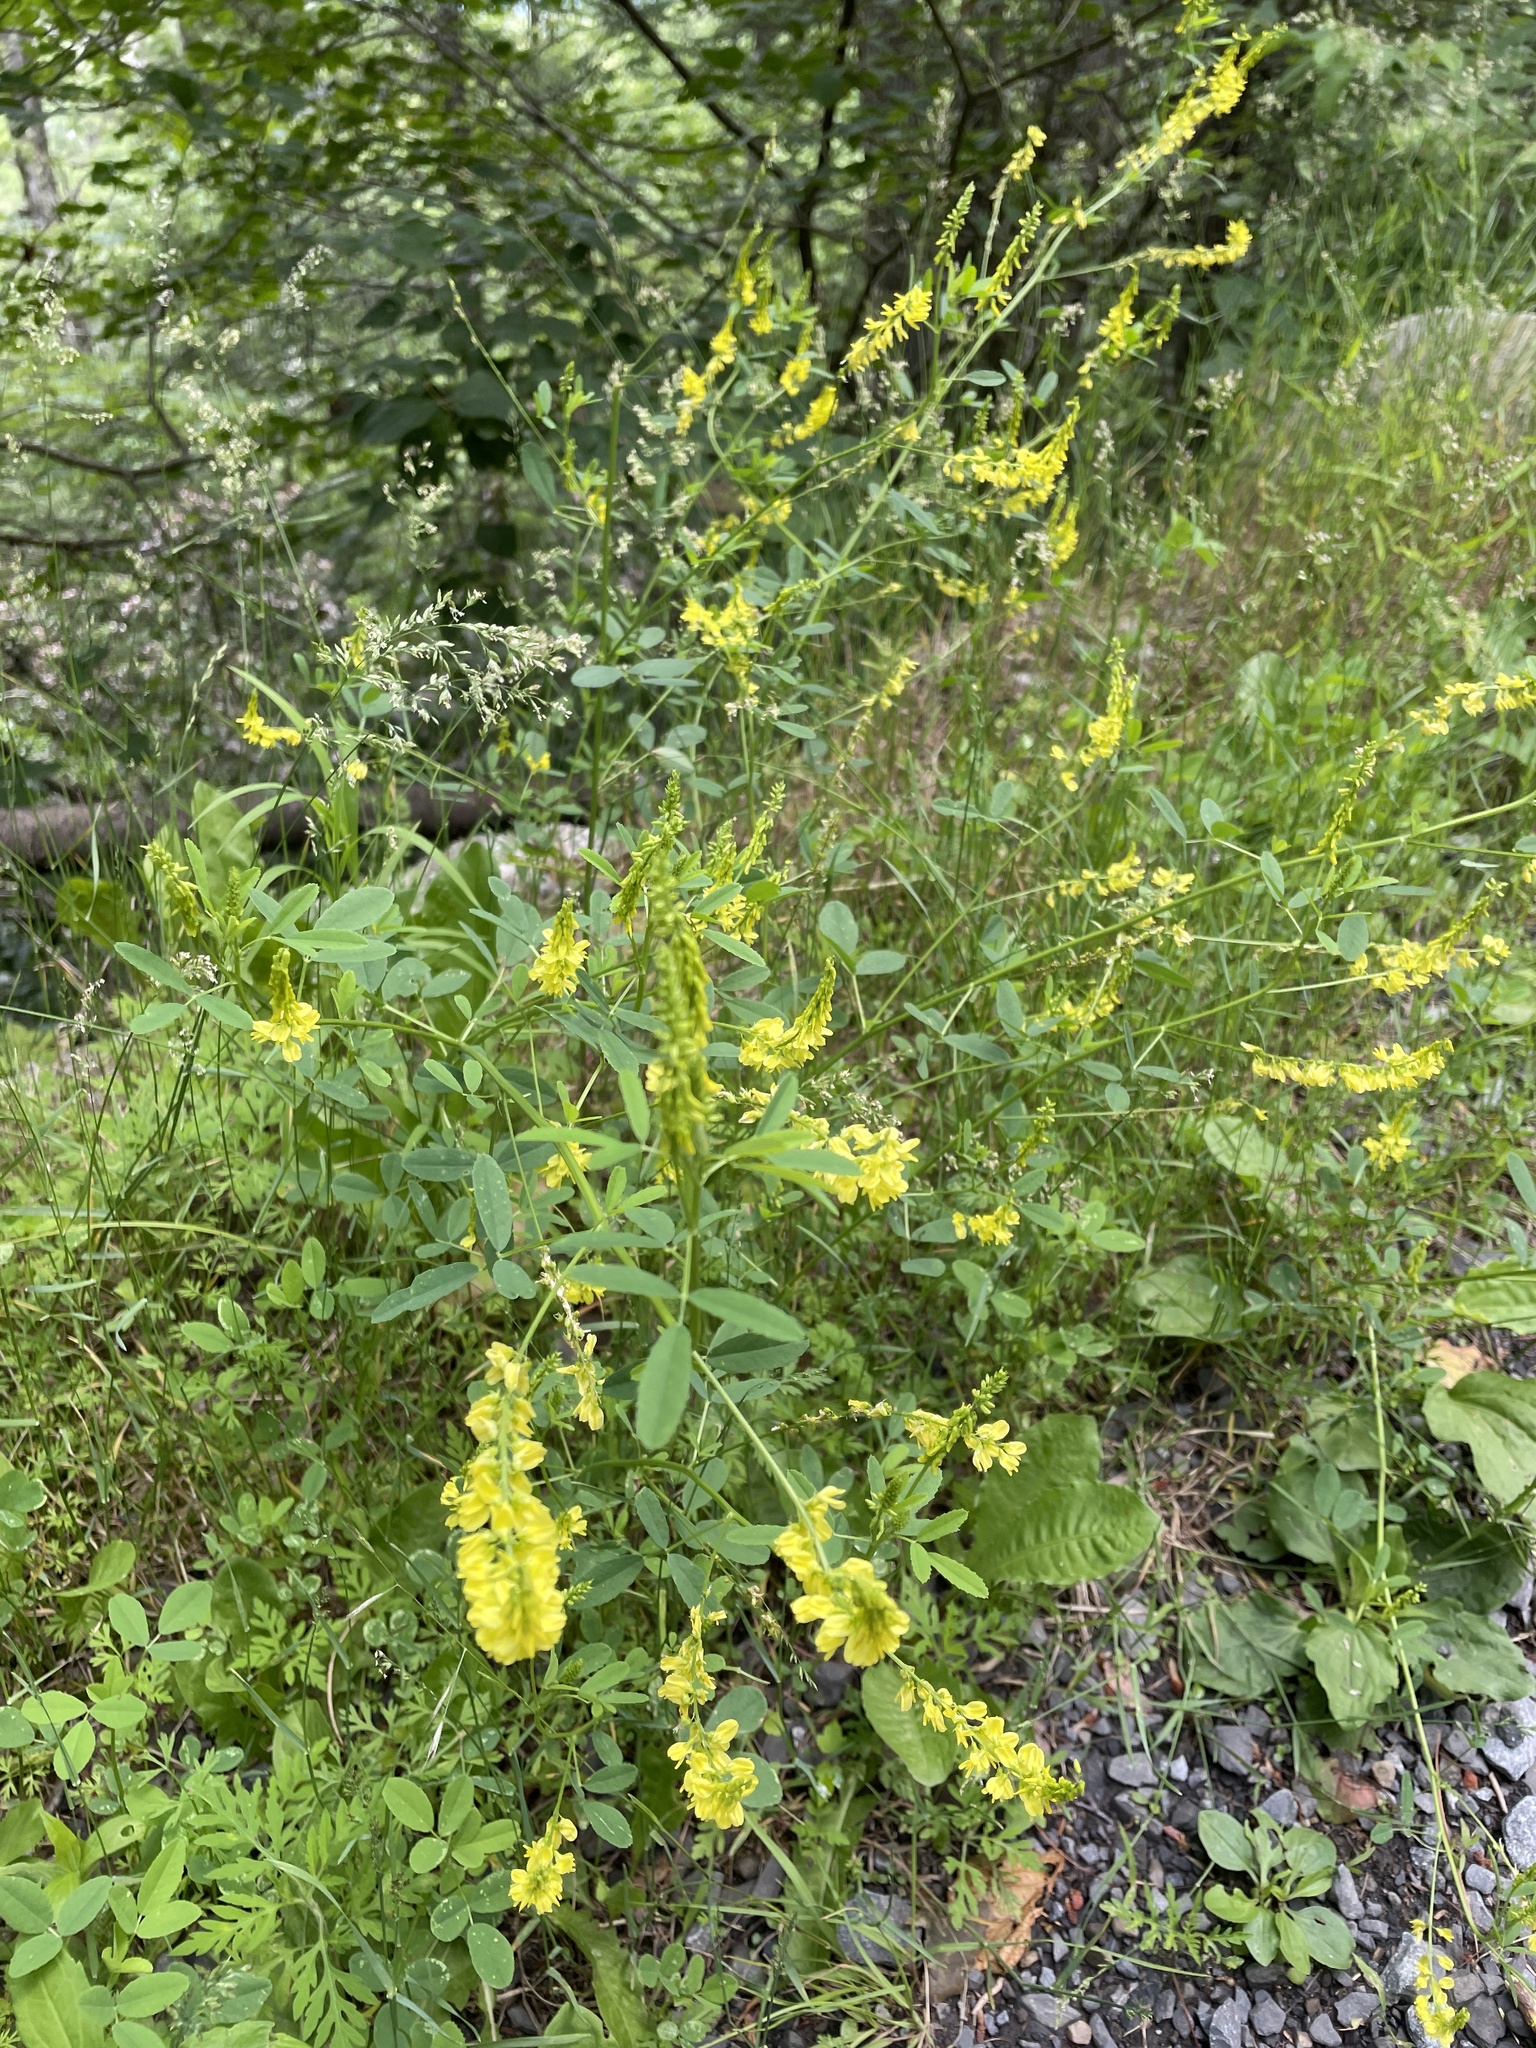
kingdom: Plantae
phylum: Tracheophyta
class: Magnoliopsida
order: Fabales
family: Fabaceae
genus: Melilotus
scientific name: Melilotus officinalis
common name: Sweetclover
